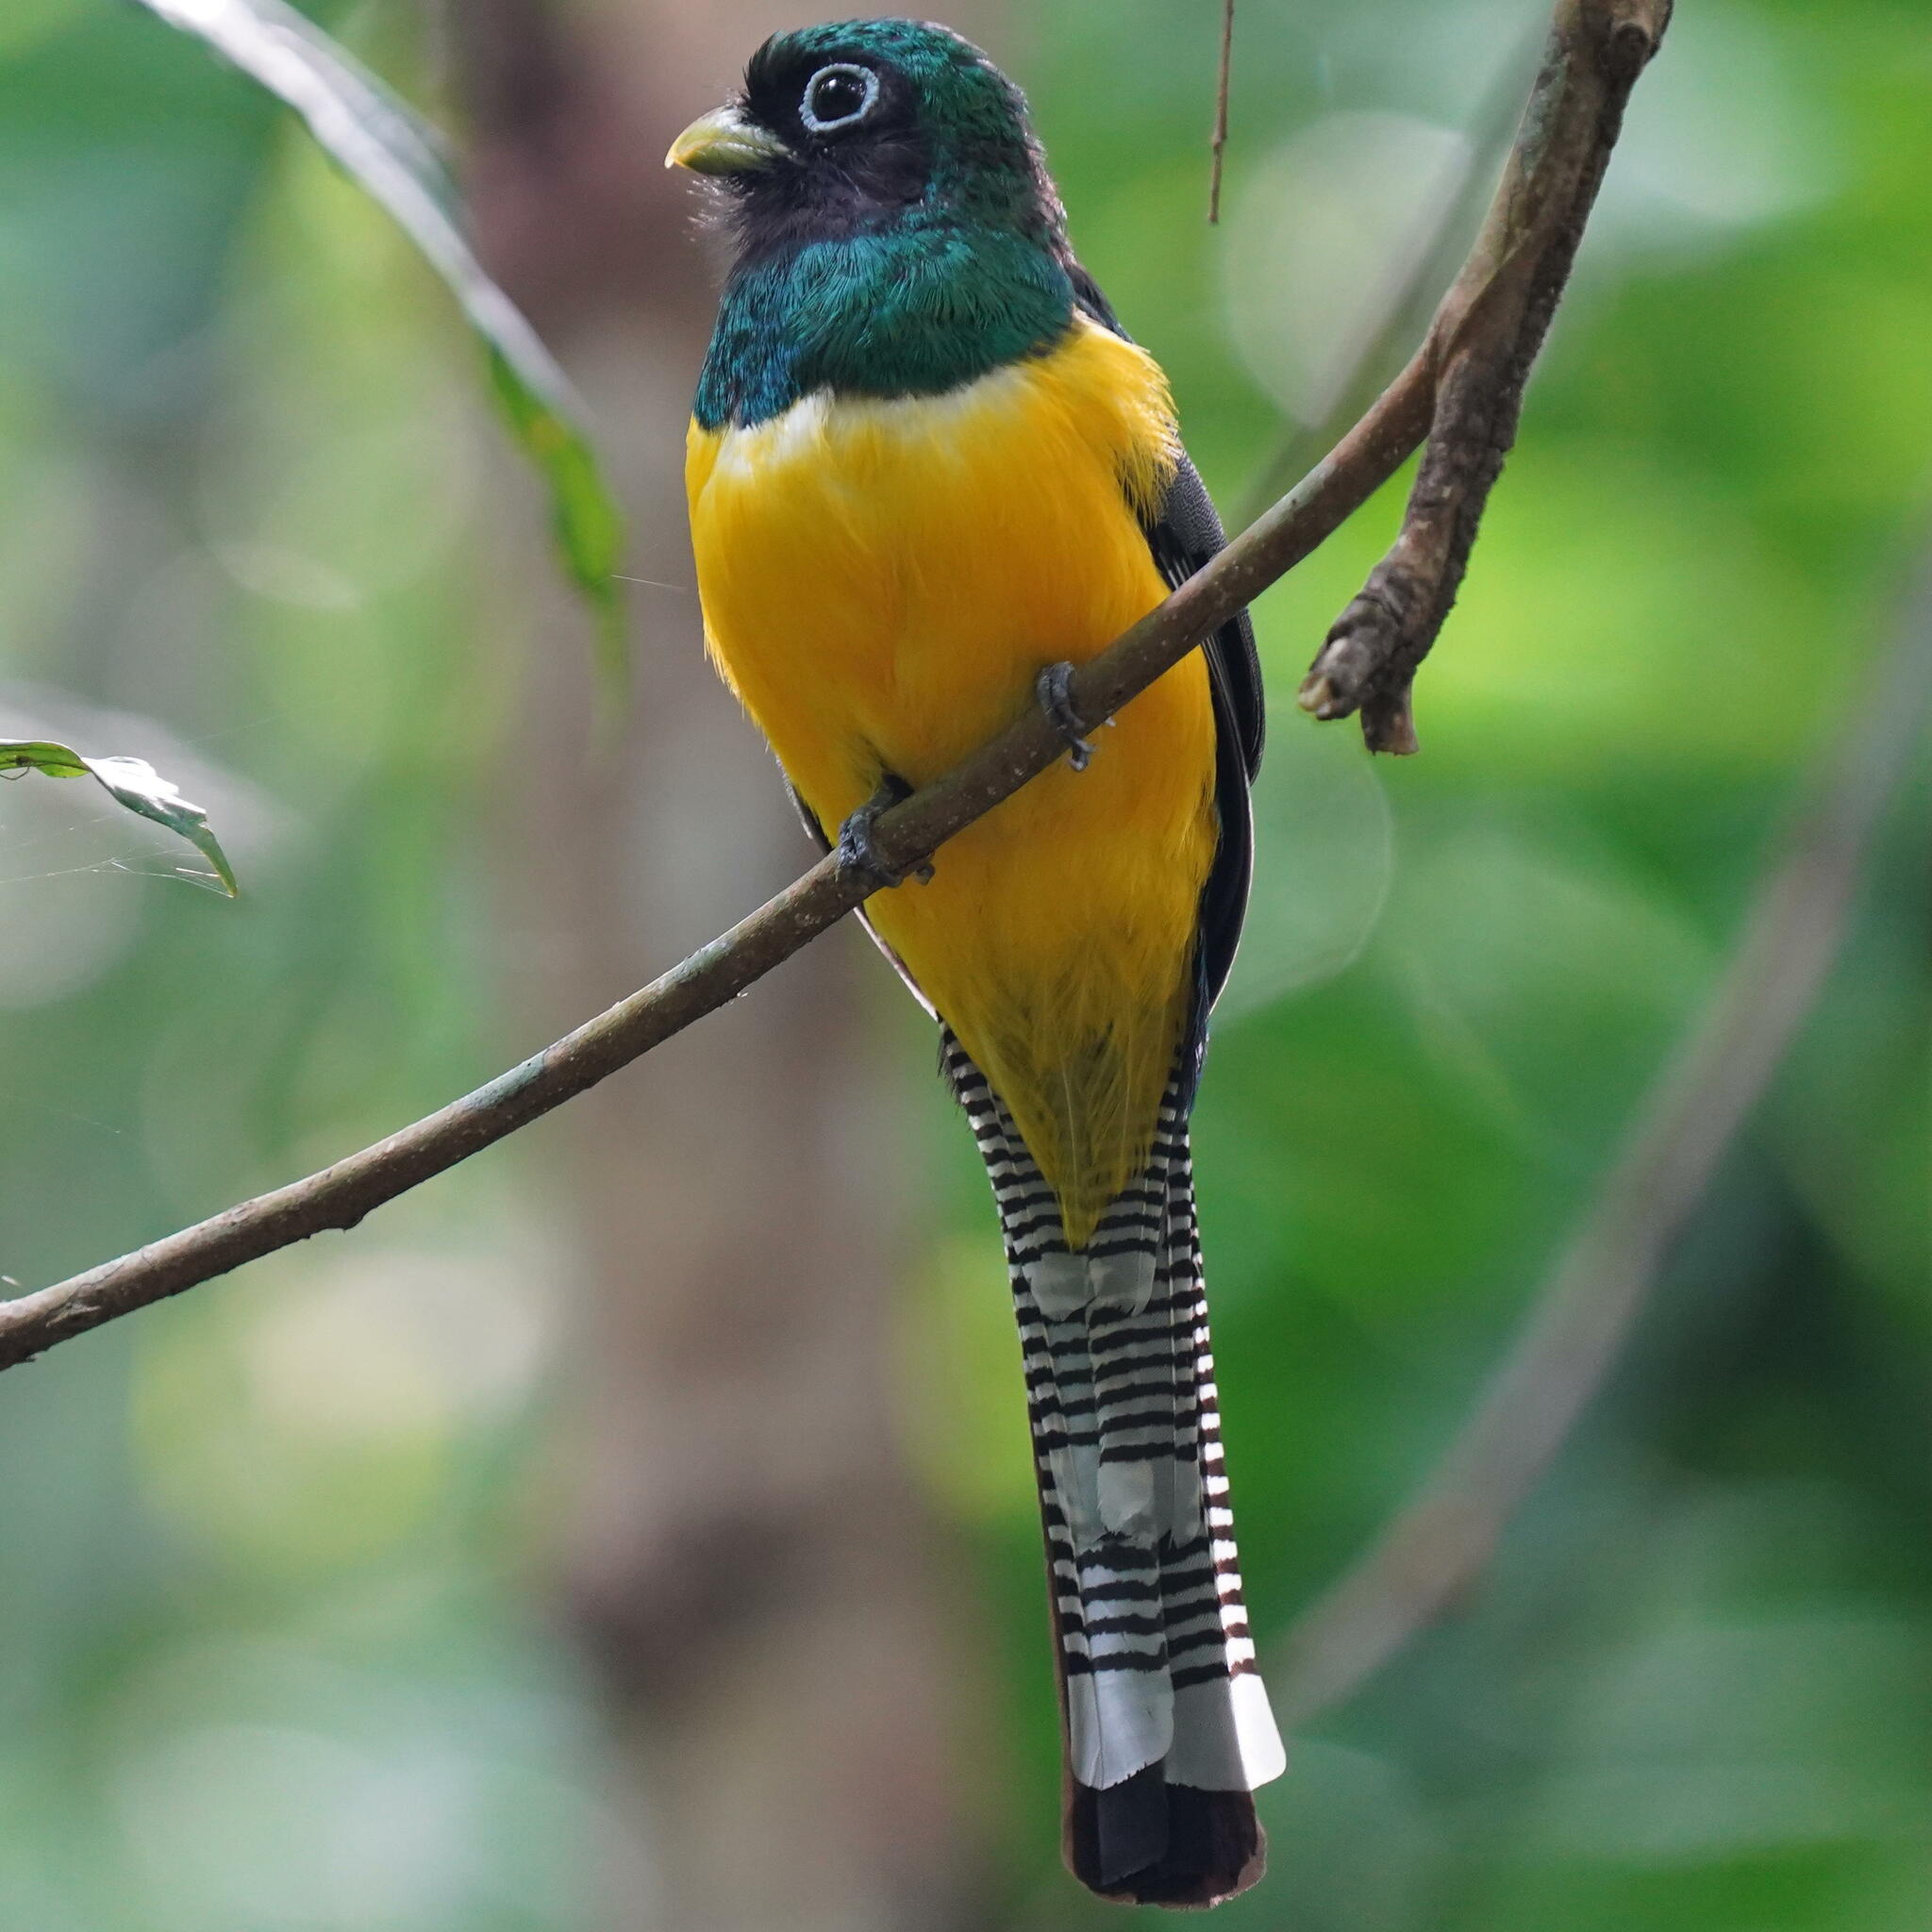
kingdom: Animalia
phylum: Chordata
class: Aves
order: Trogoniformes
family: Trogonidae
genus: Trogon
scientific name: Trogon rufus
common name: Black-throated trogon
